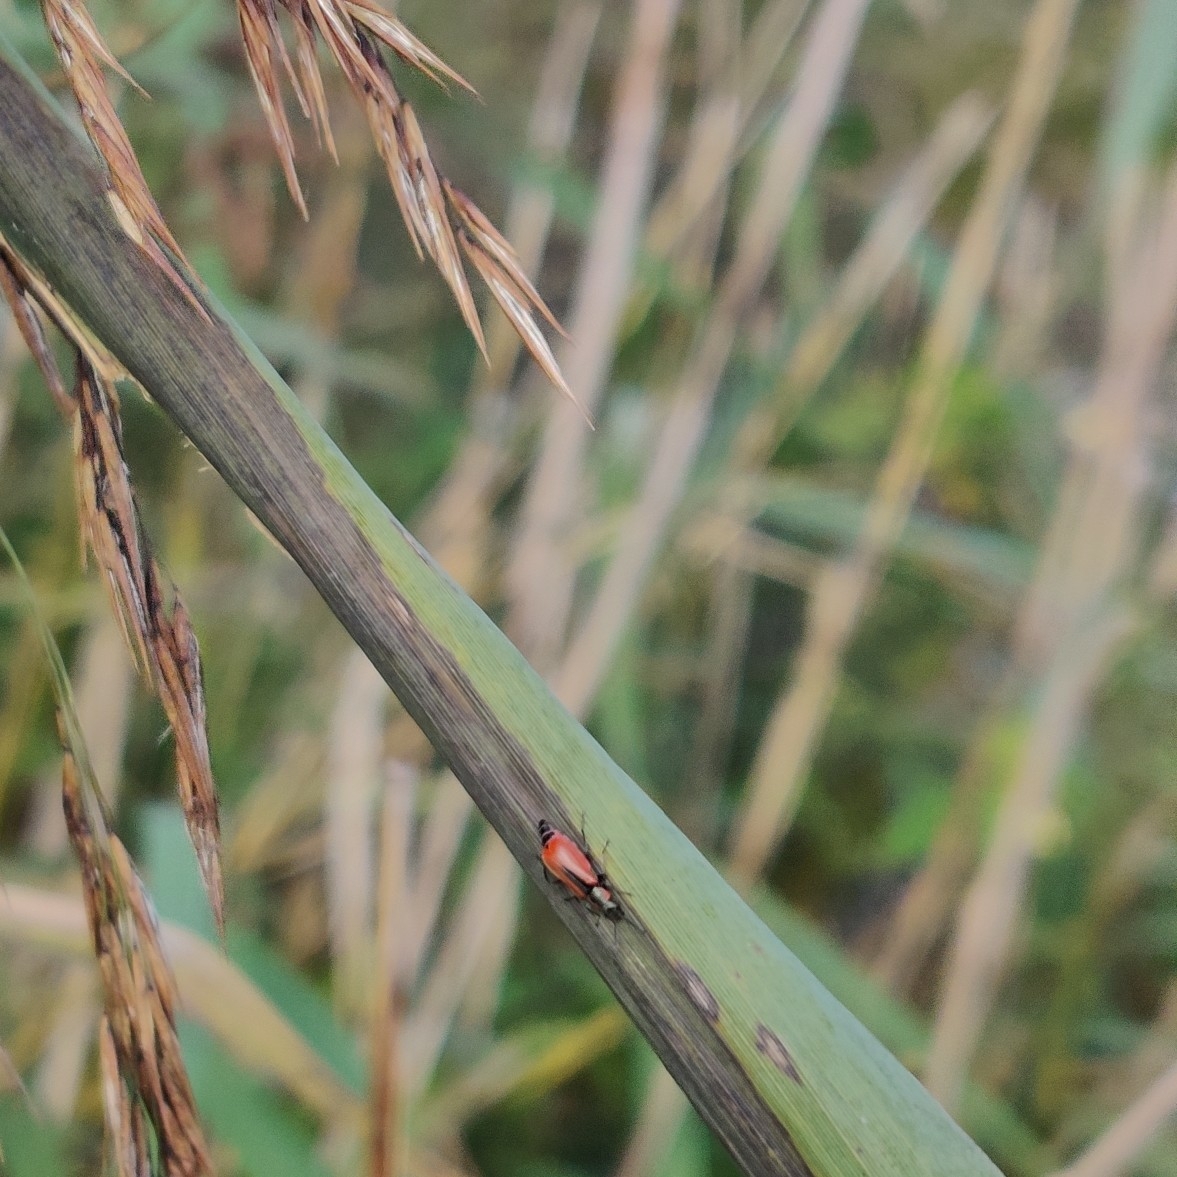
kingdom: Animalia
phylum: Arthropoda
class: Insecta
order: Coleoptera
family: Melyridae
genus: Anthocomus
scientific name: Anthocomus rufus
